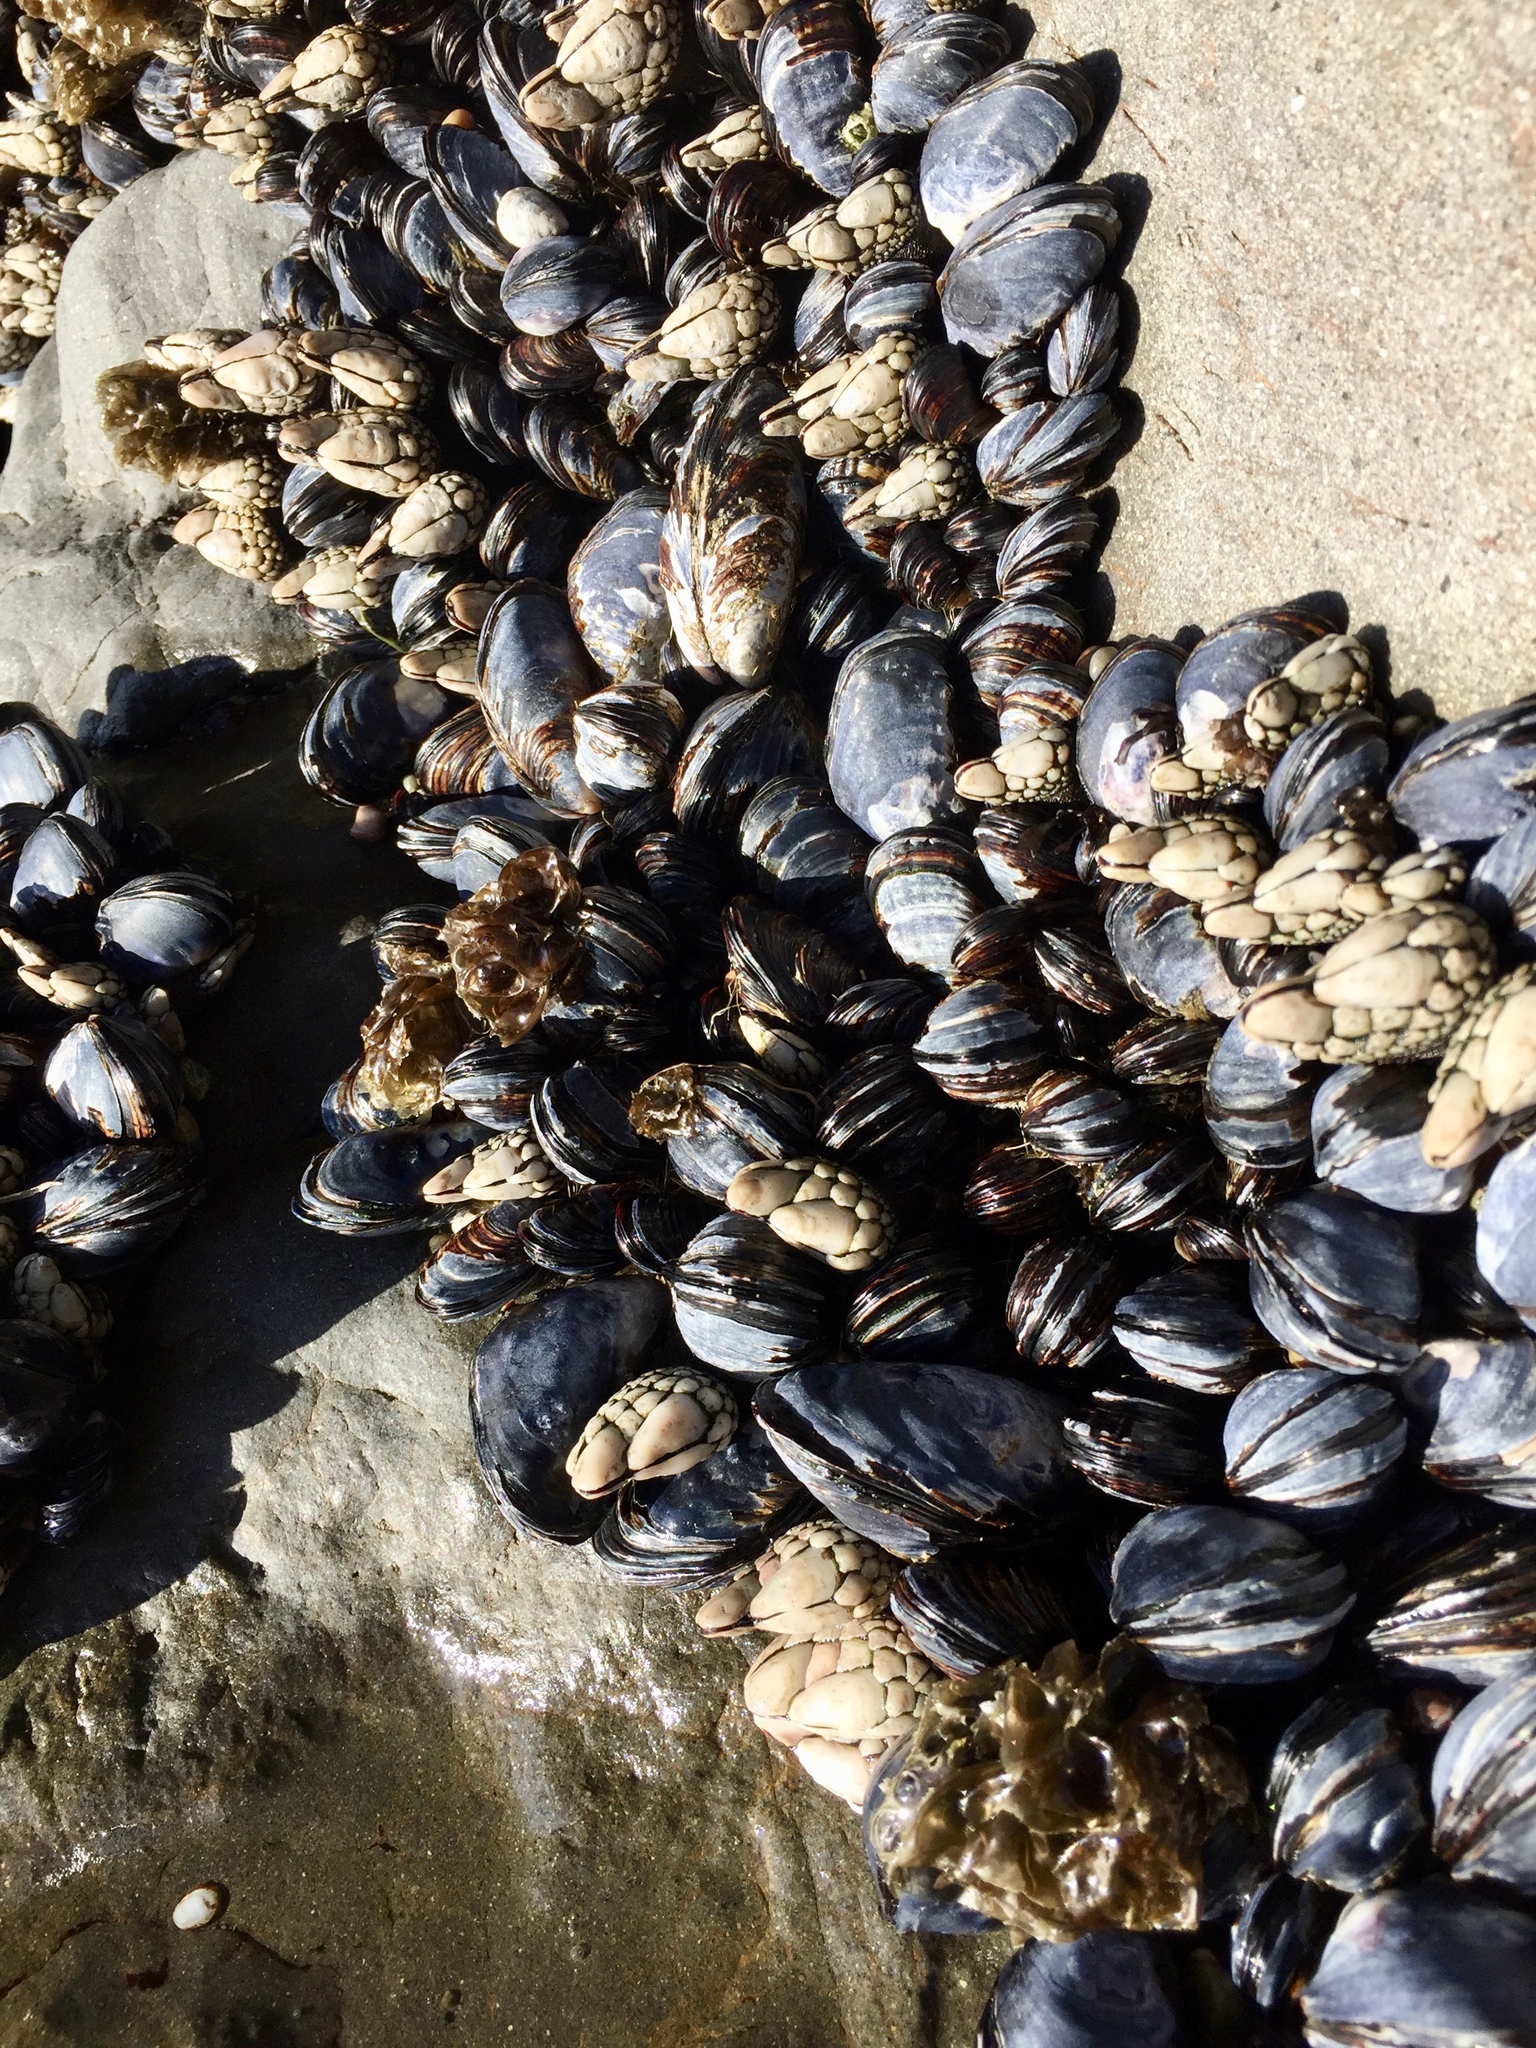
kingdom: Animalia
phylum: Mollusca
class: Bivalvia
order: Mytilida
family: Mytilidae
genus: Mytilus
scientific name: Mytilus californianus
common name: California mussel
